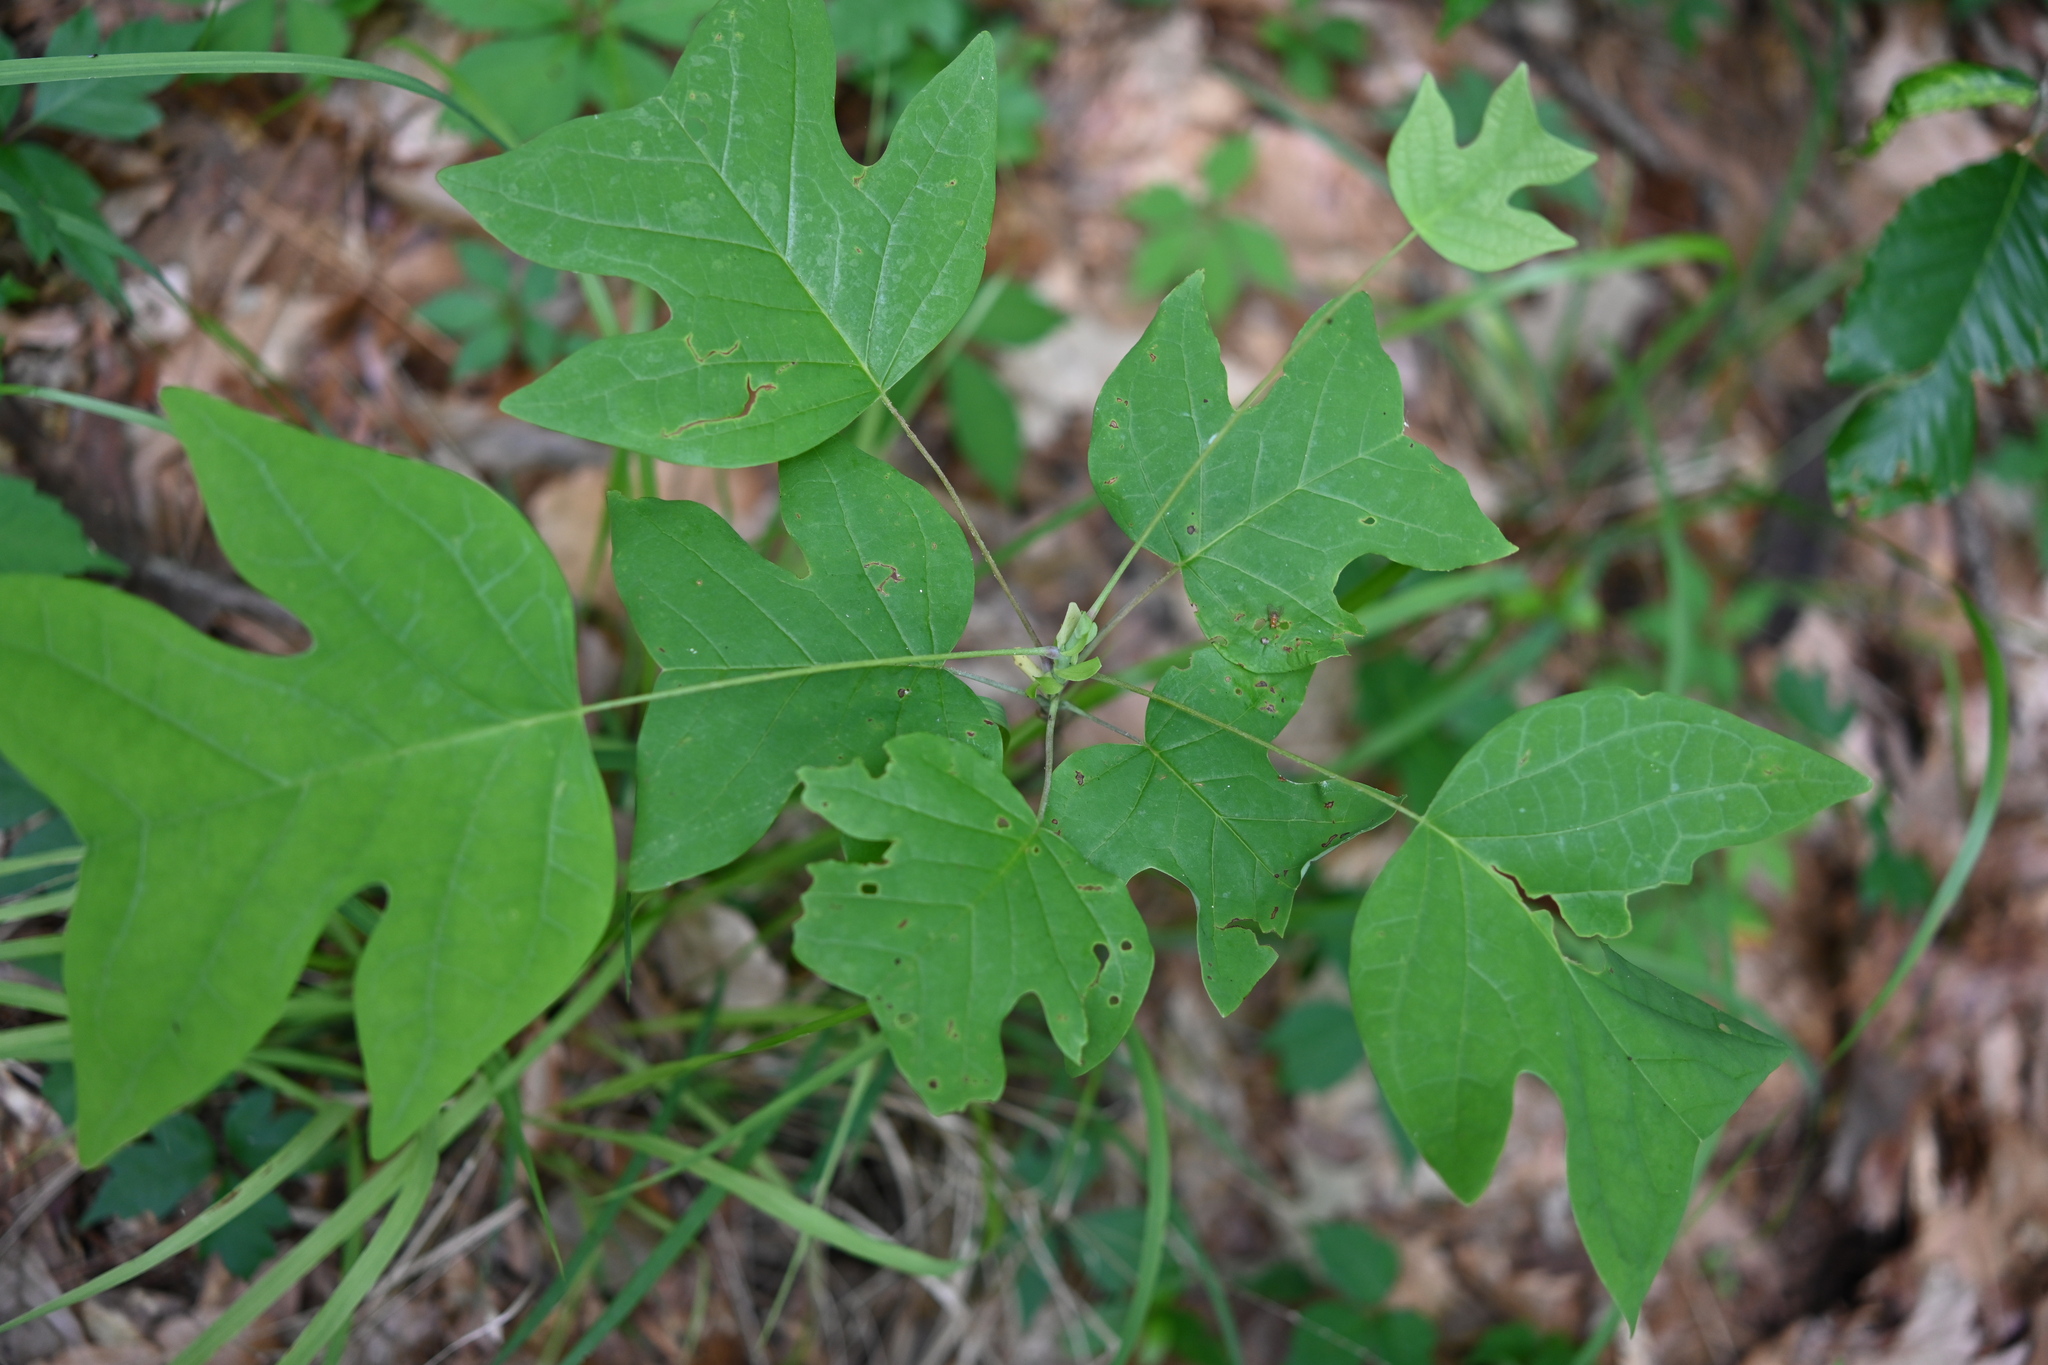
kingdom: Plantae
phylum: Tracheophyta
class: Magnoliopsida
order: Magnoliales
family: Magnoliaceae
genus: Liriodendron
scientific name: Liriodendron tulipifera
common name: Tulip tree
